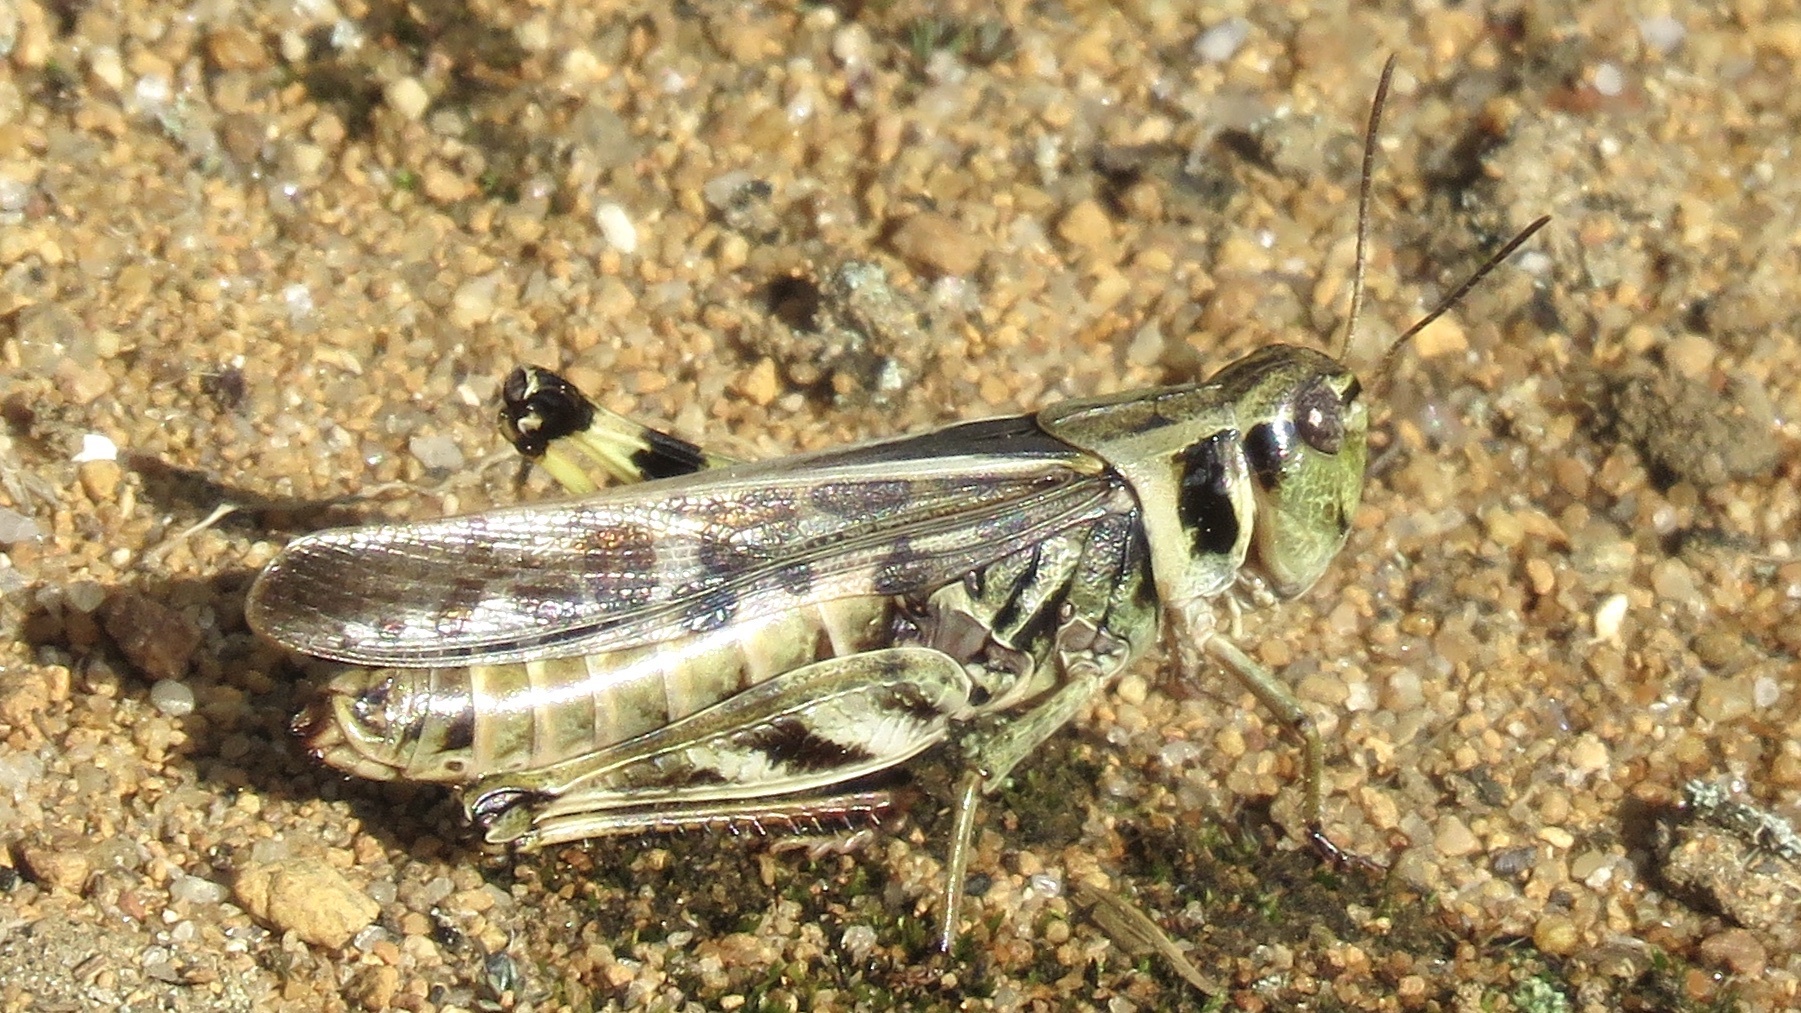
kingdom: Animalia
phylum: Arthropoda
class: Insecta
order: Orthoptera
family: Acrididae
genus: Camnula
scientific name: Camnula pellucida
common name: Clear-winged grasshopper
